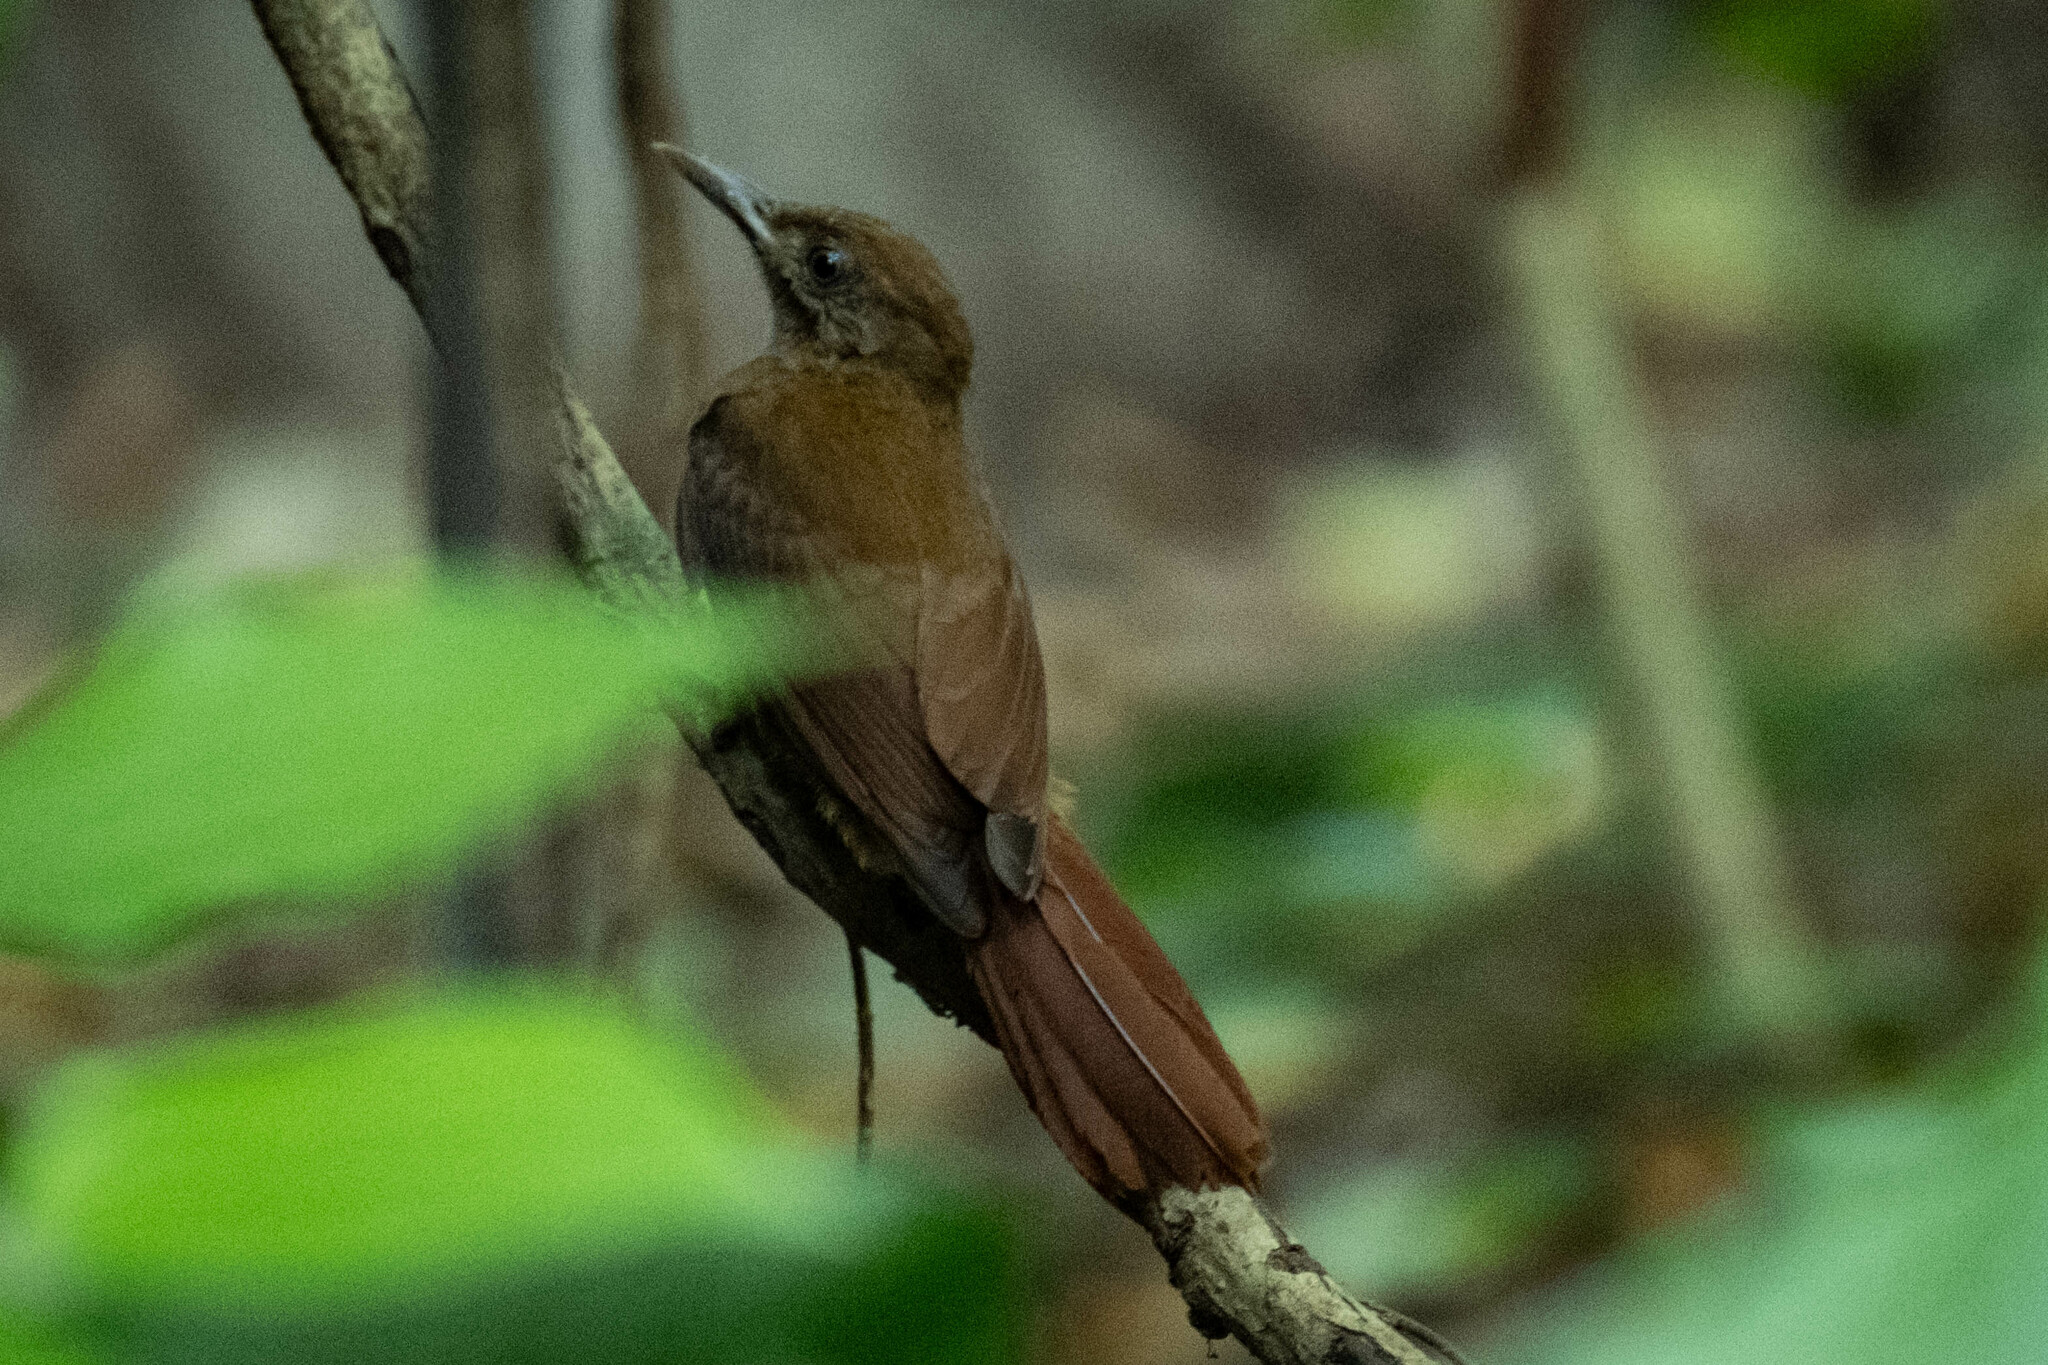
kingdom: Animalia
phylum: Chordata
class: Aves
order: Passeriformes
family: Furnariidae
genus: Dendrocincla
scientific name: Dendrocincla fuliginosa
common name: Plain-brown woodcreeper
